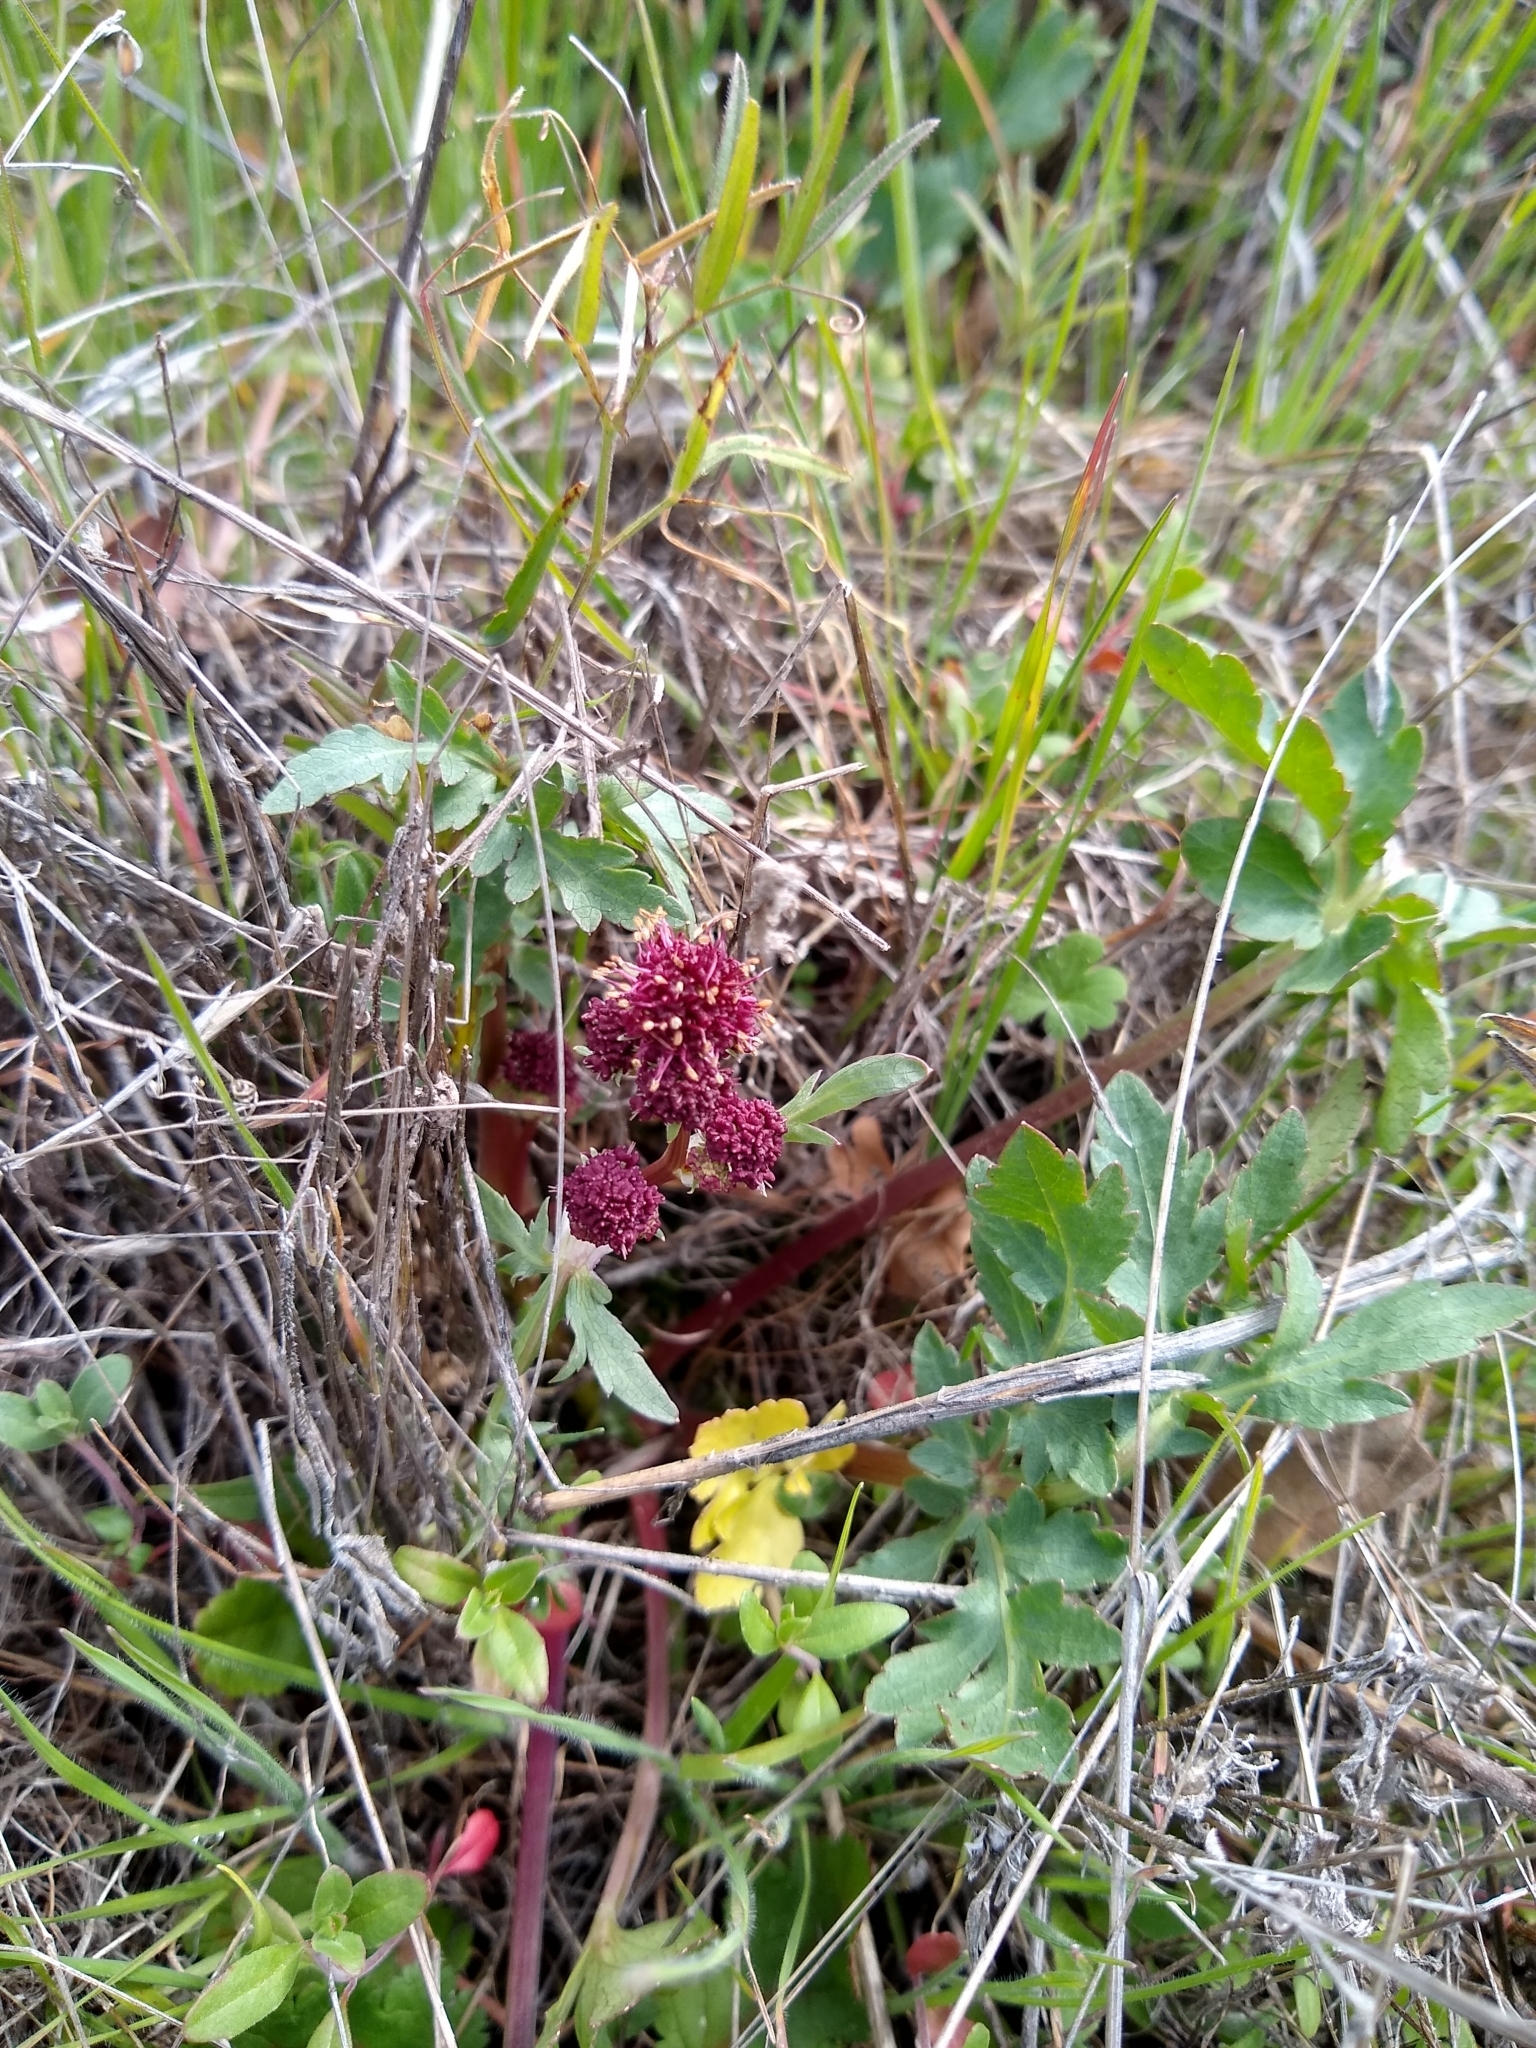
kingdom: Plantae
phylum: Tracheophyta
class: Magnoliopsida
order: Apiales
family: Apiaceae
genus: Sanicula
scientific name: Sanicula bipinnatifida
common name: Shoe-buttons
